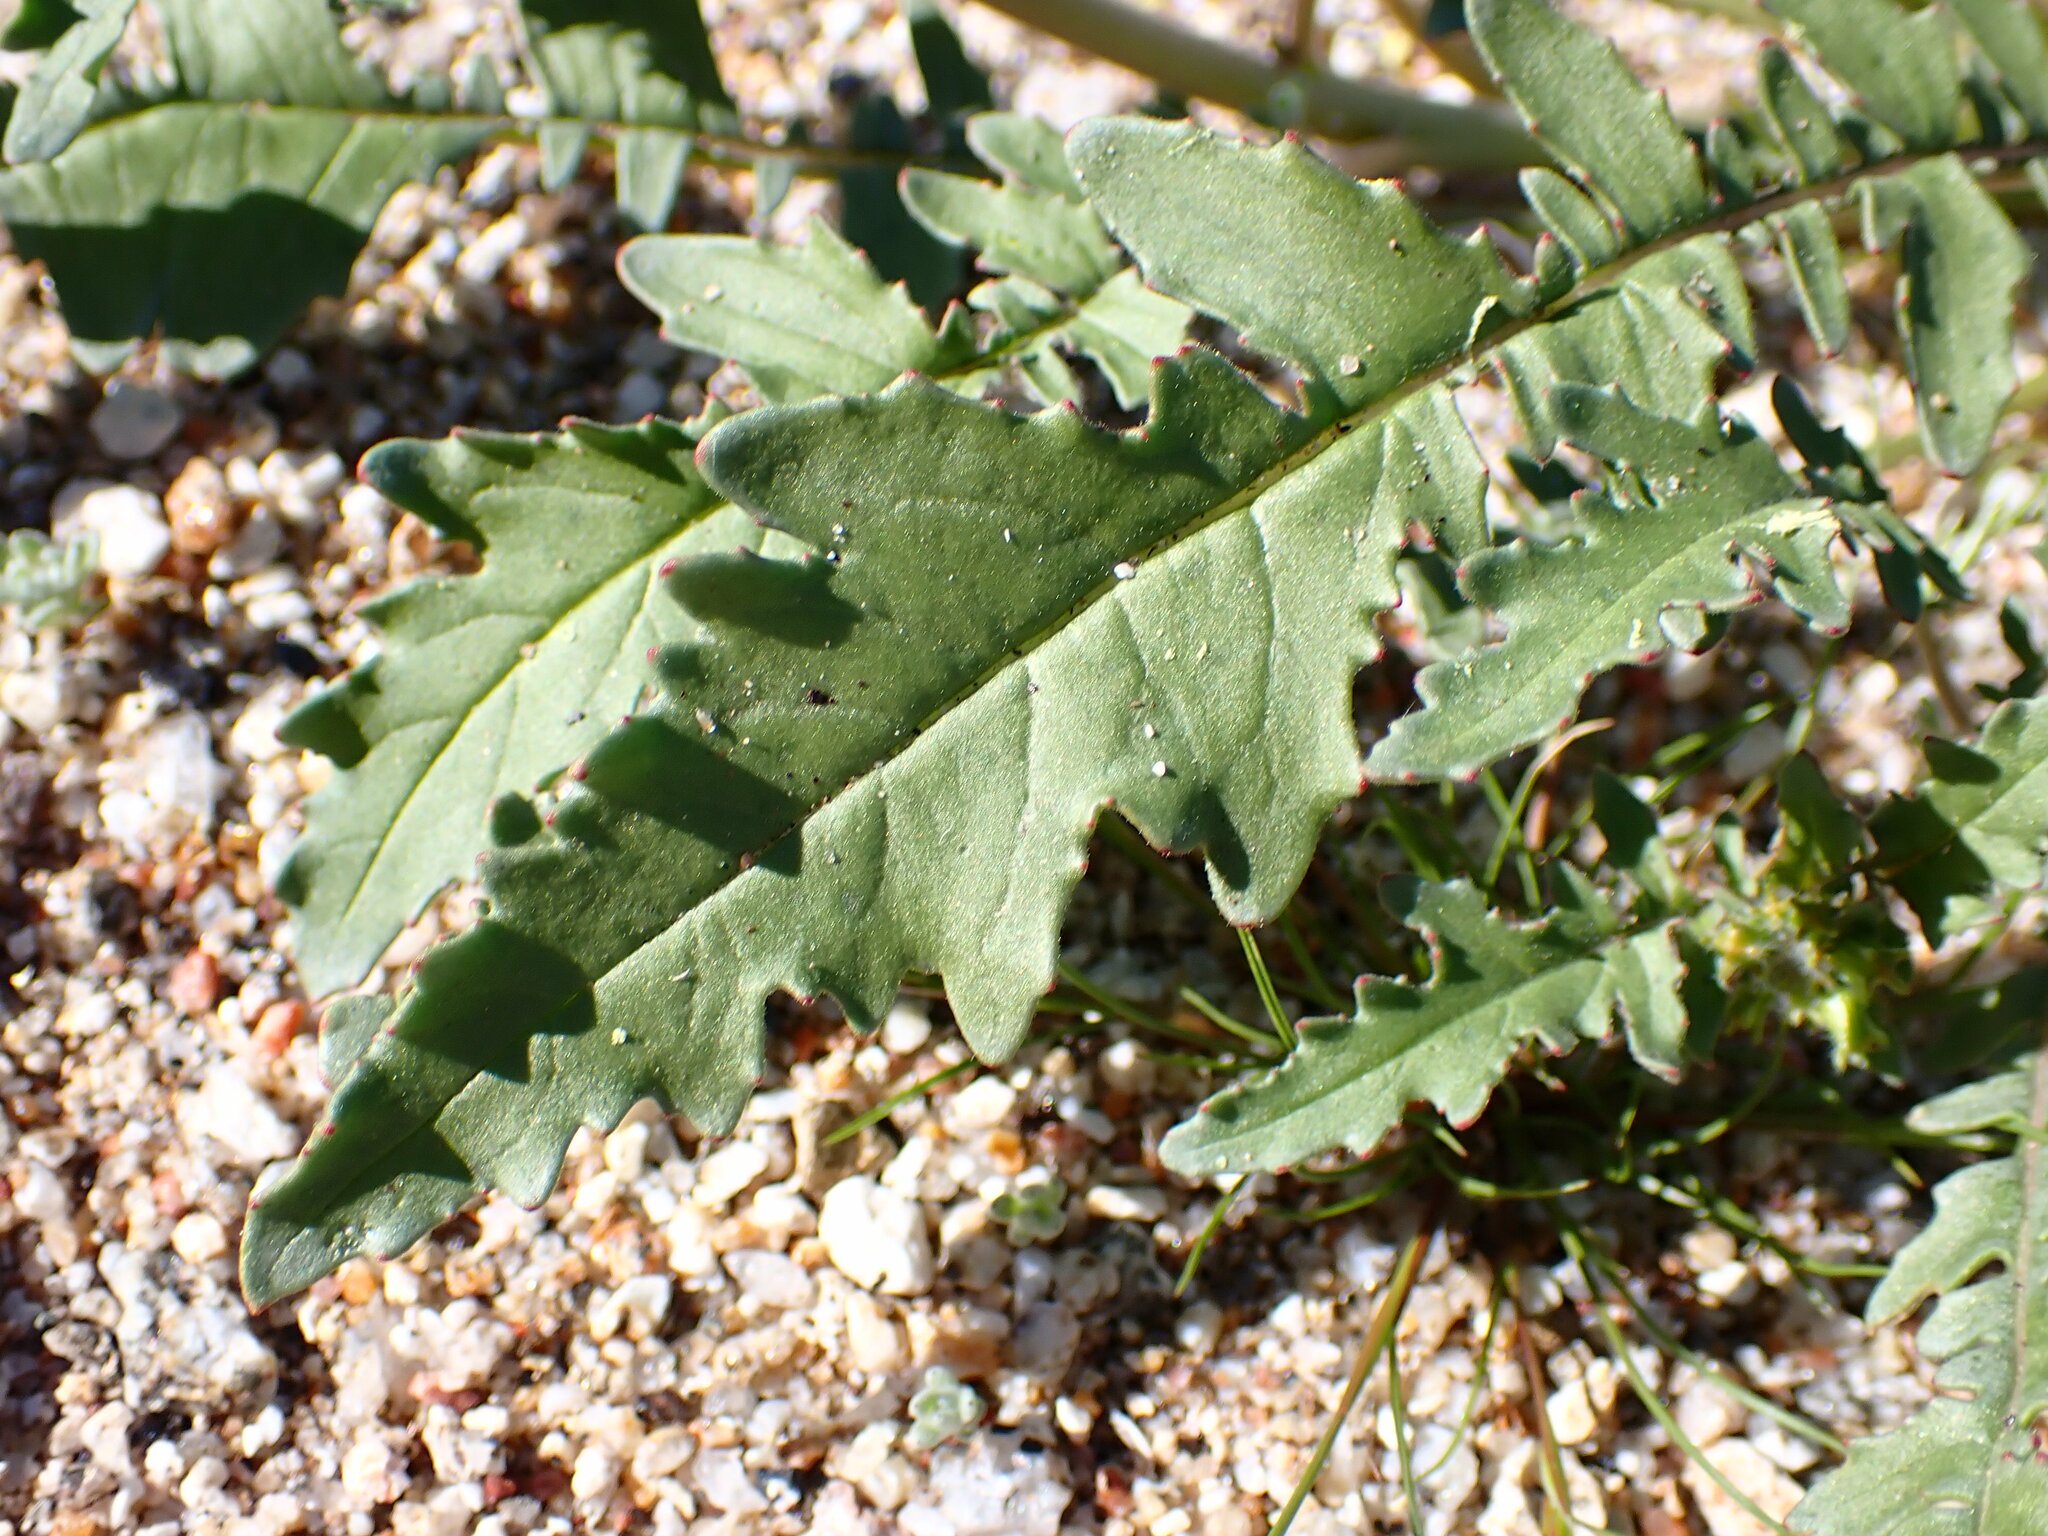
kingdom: Plantae
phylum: Tracheophyta
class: Magnoliopsida
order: Myrtales
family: Onagraceae
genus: Chylismia
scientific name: Chylismia claviformis
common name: Browneyes
